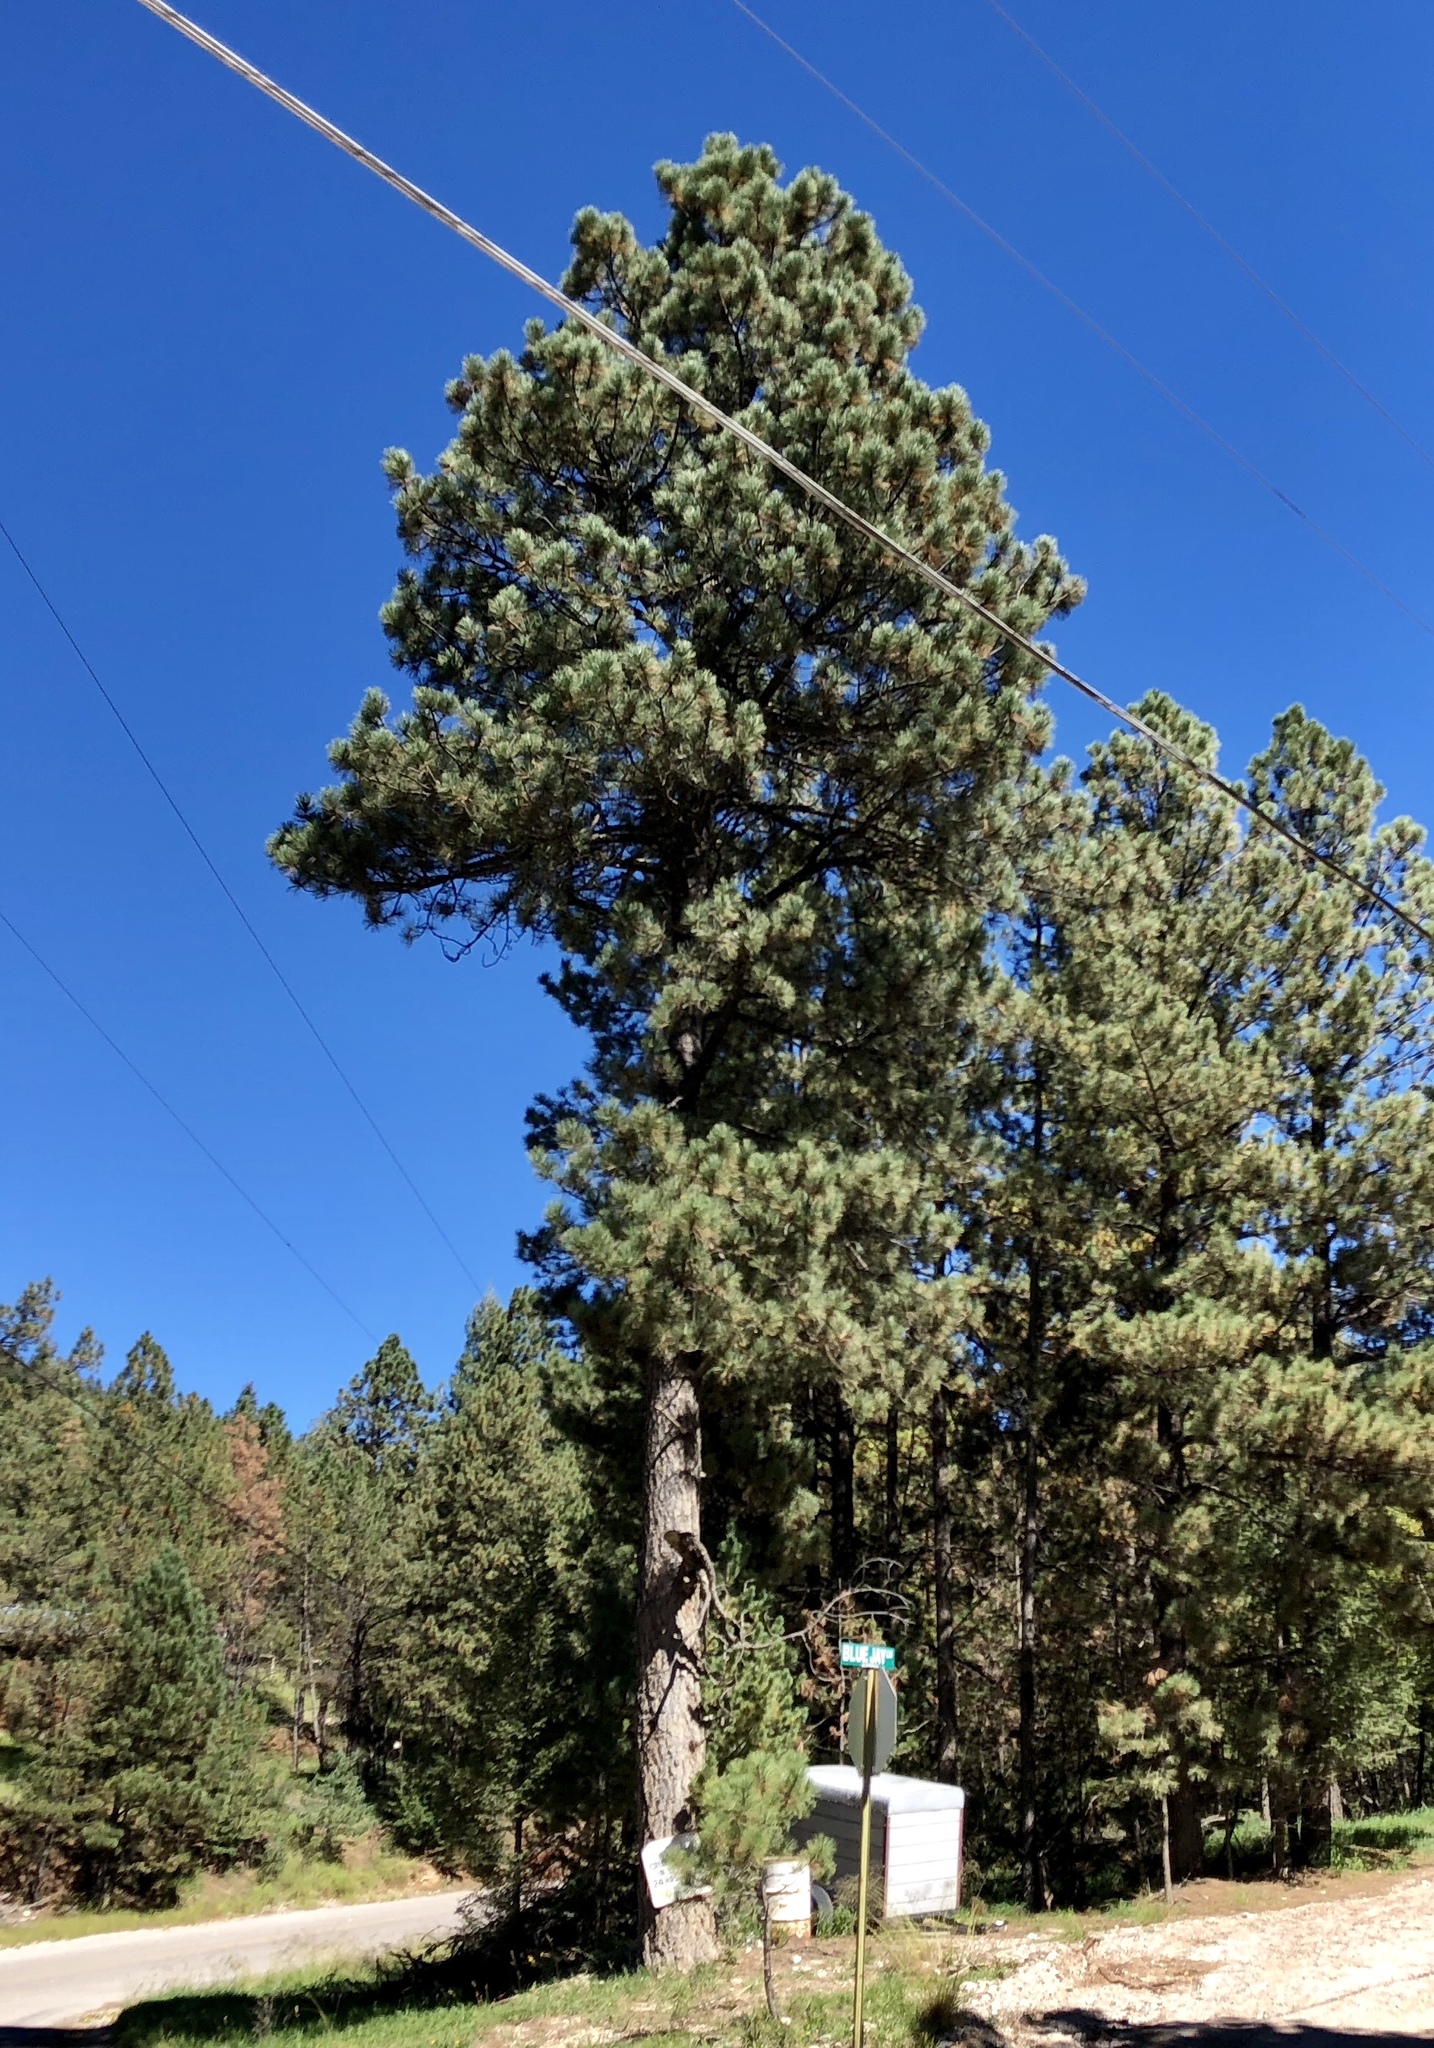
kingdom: Plantae
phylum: Tracheophyta
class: Pinopsida
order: Pinales
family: Pinaceae
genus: Pinus
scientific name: Pinus ponderosa
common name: Western yellow-pine
